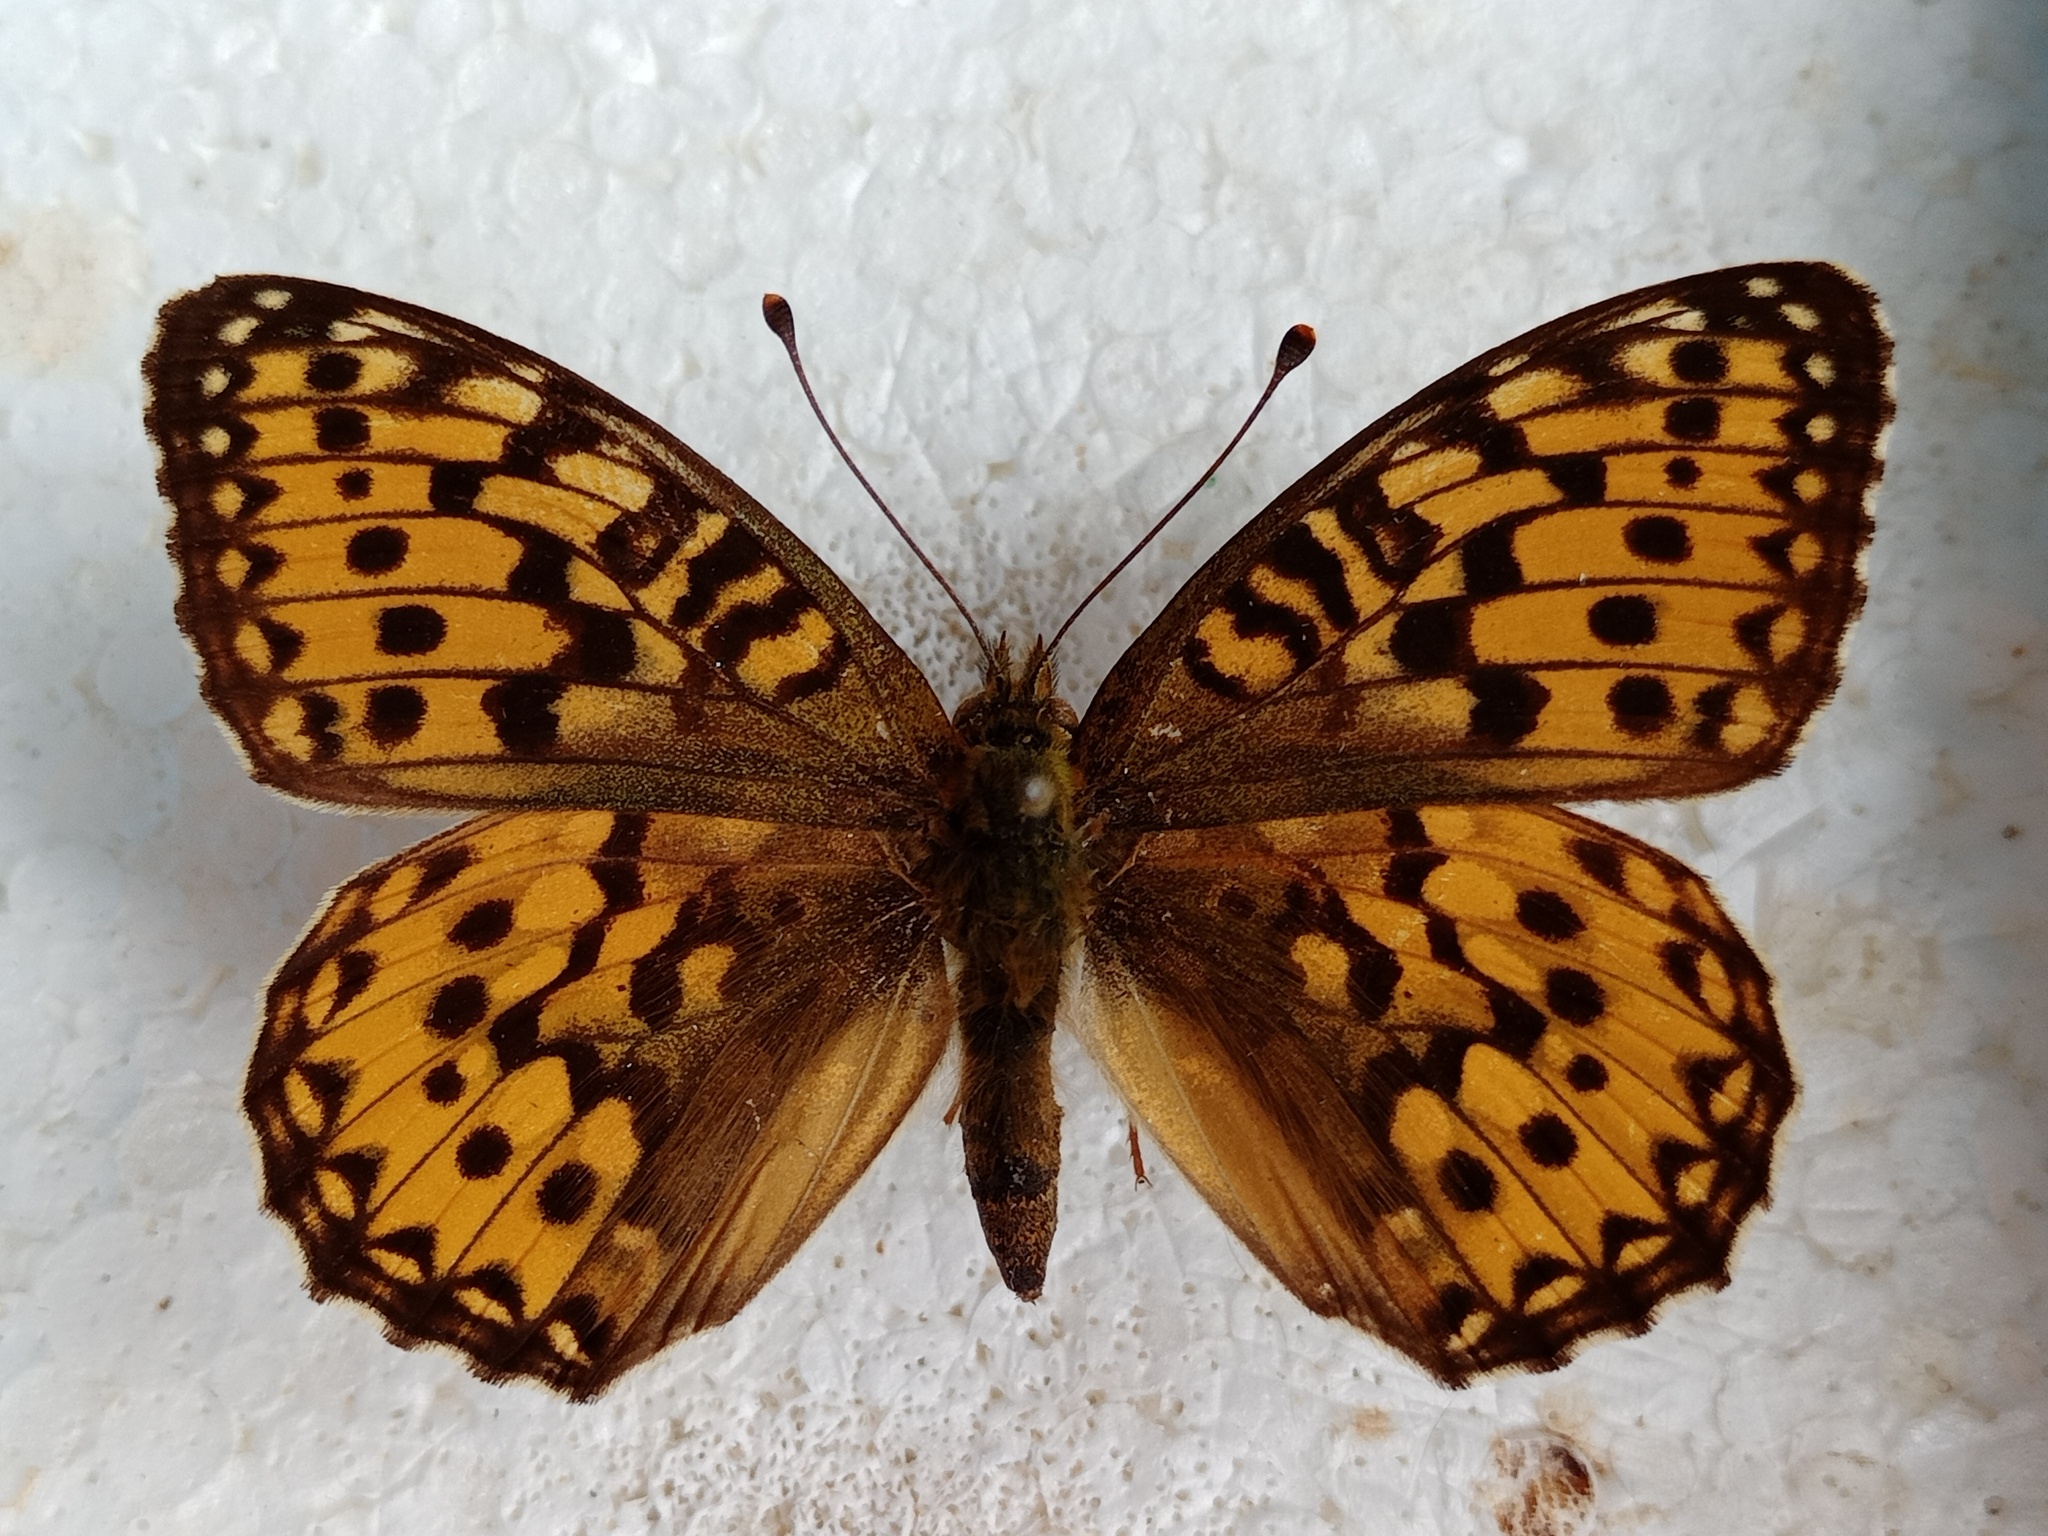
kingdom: Animalia
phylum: Arthropoda
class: Insecta
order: Lepidoptera
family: Nymphalidae
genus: Speyeria
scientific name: Speyeria aglaja
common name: Dark green fritillary
